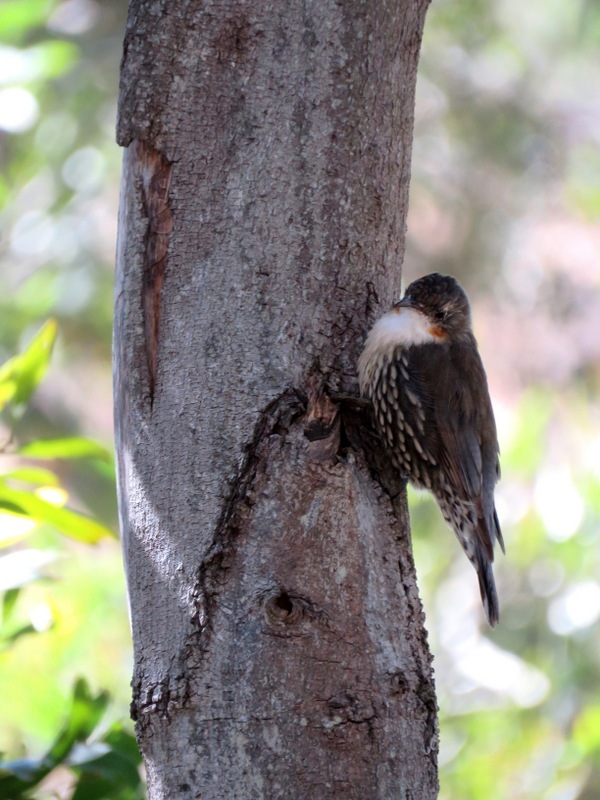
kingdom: Animalia
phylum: Chordata
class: Aves
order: Passeriformes
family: Climacteridae
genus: Cormobates
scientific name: Cormobates leucophaea
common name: White-throated treecreeper
